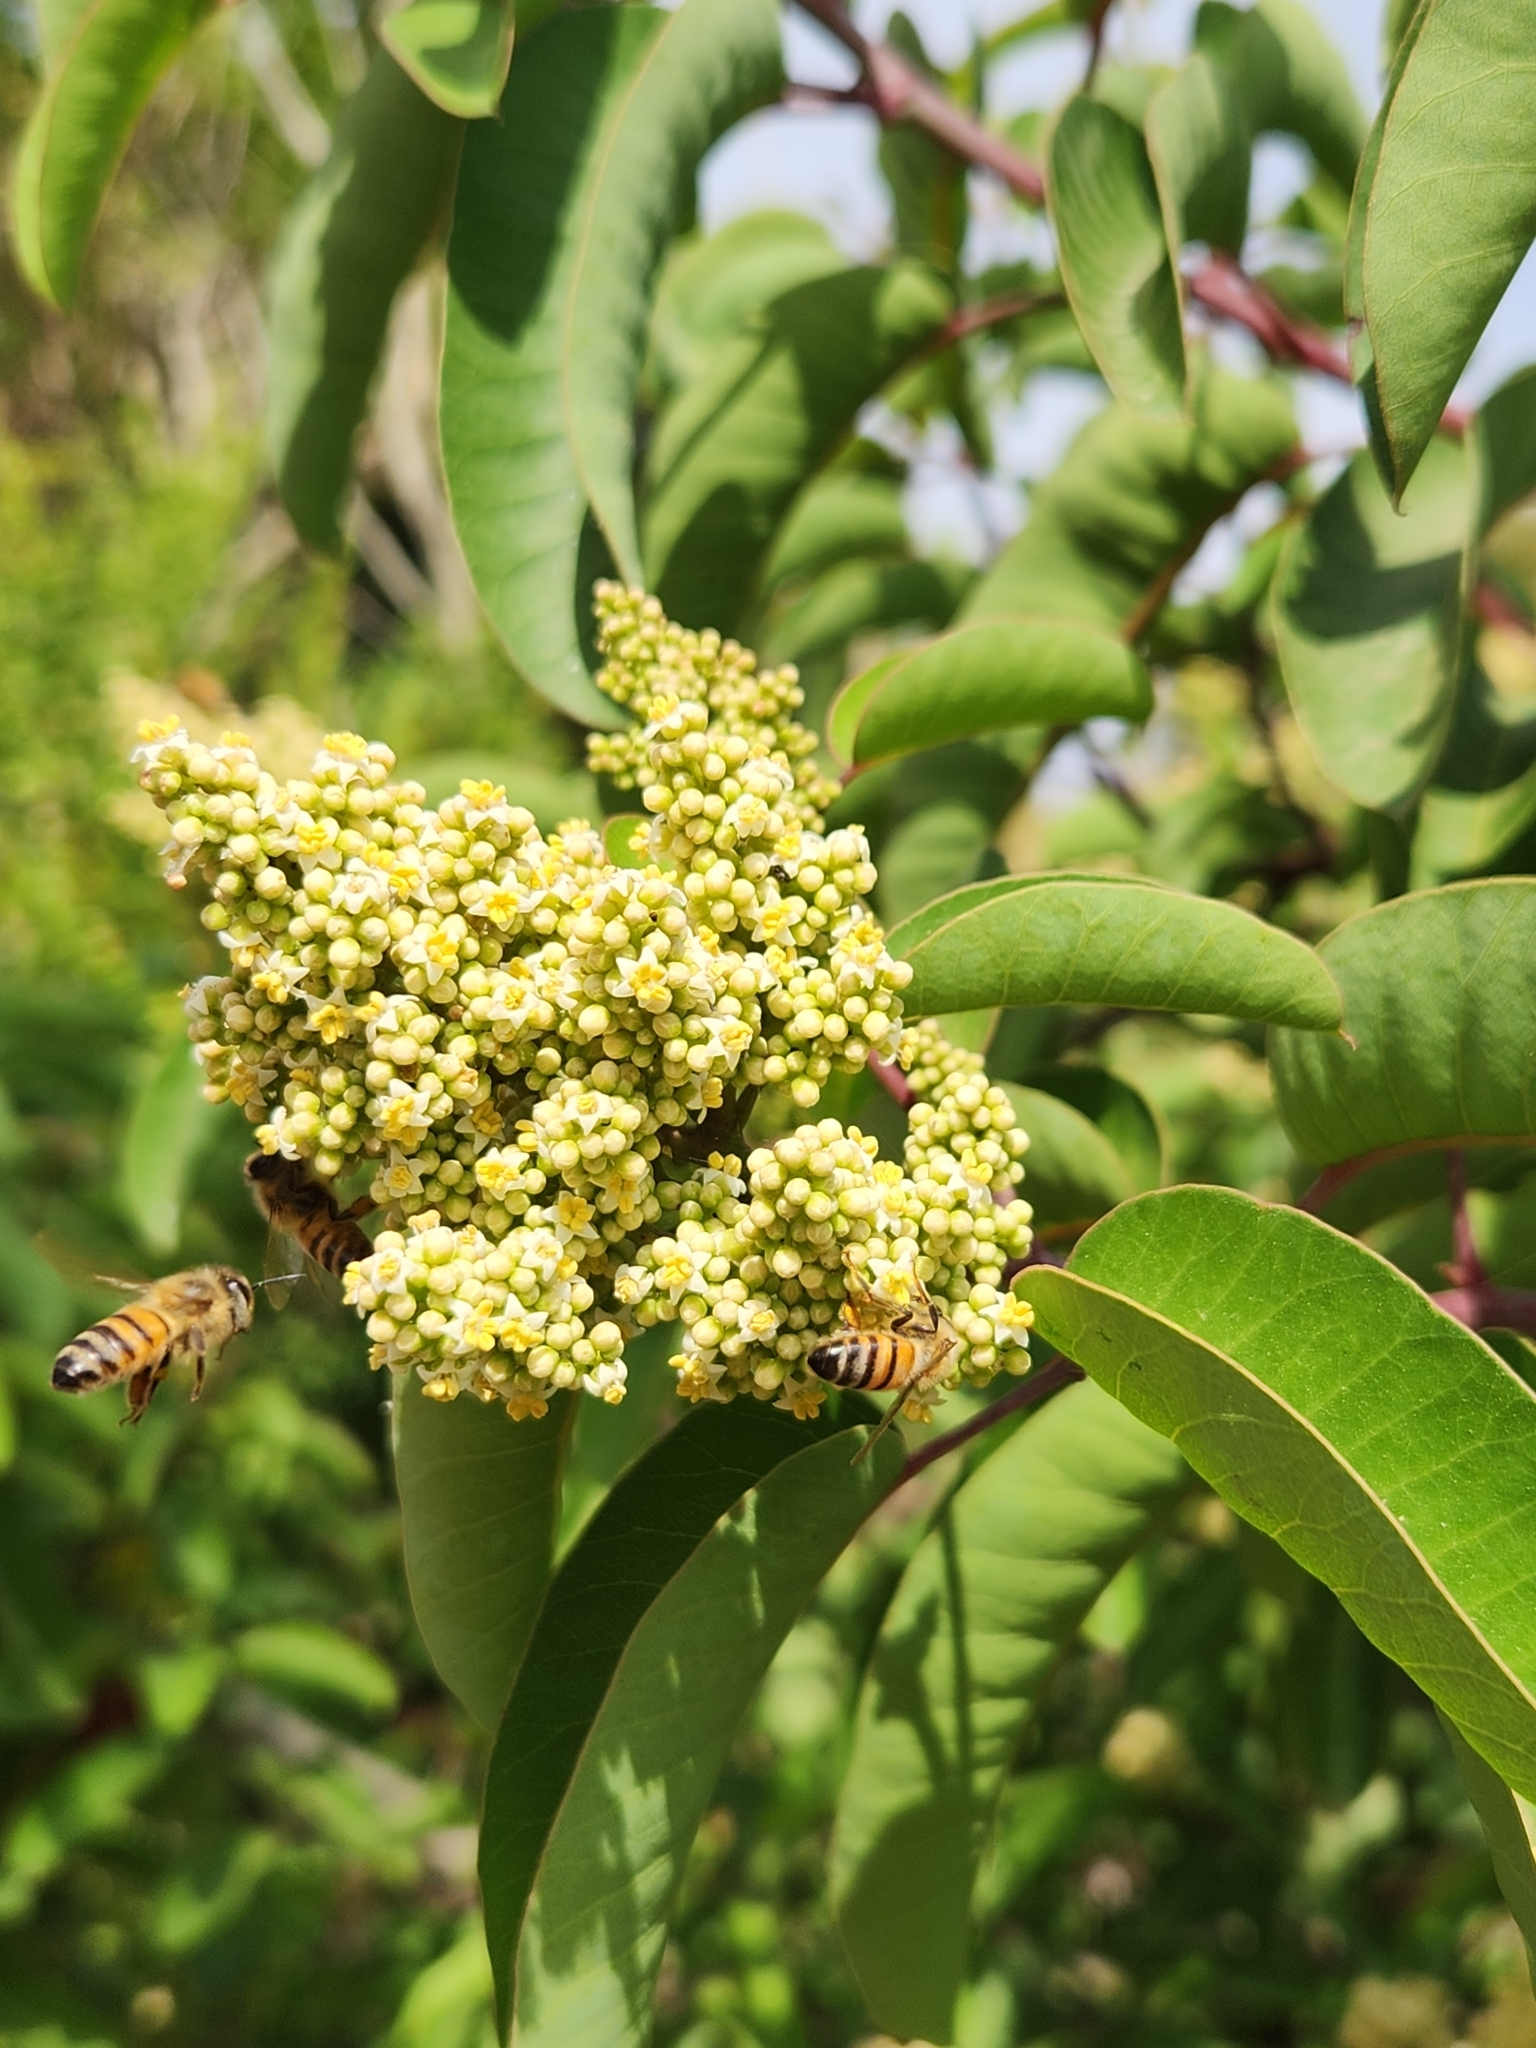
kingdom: Plantae
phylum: Tracheophyta
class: Magnoliopsida
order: Sapindales
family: Anacardiaceae
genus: Malosma
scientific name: Malosma laurina
